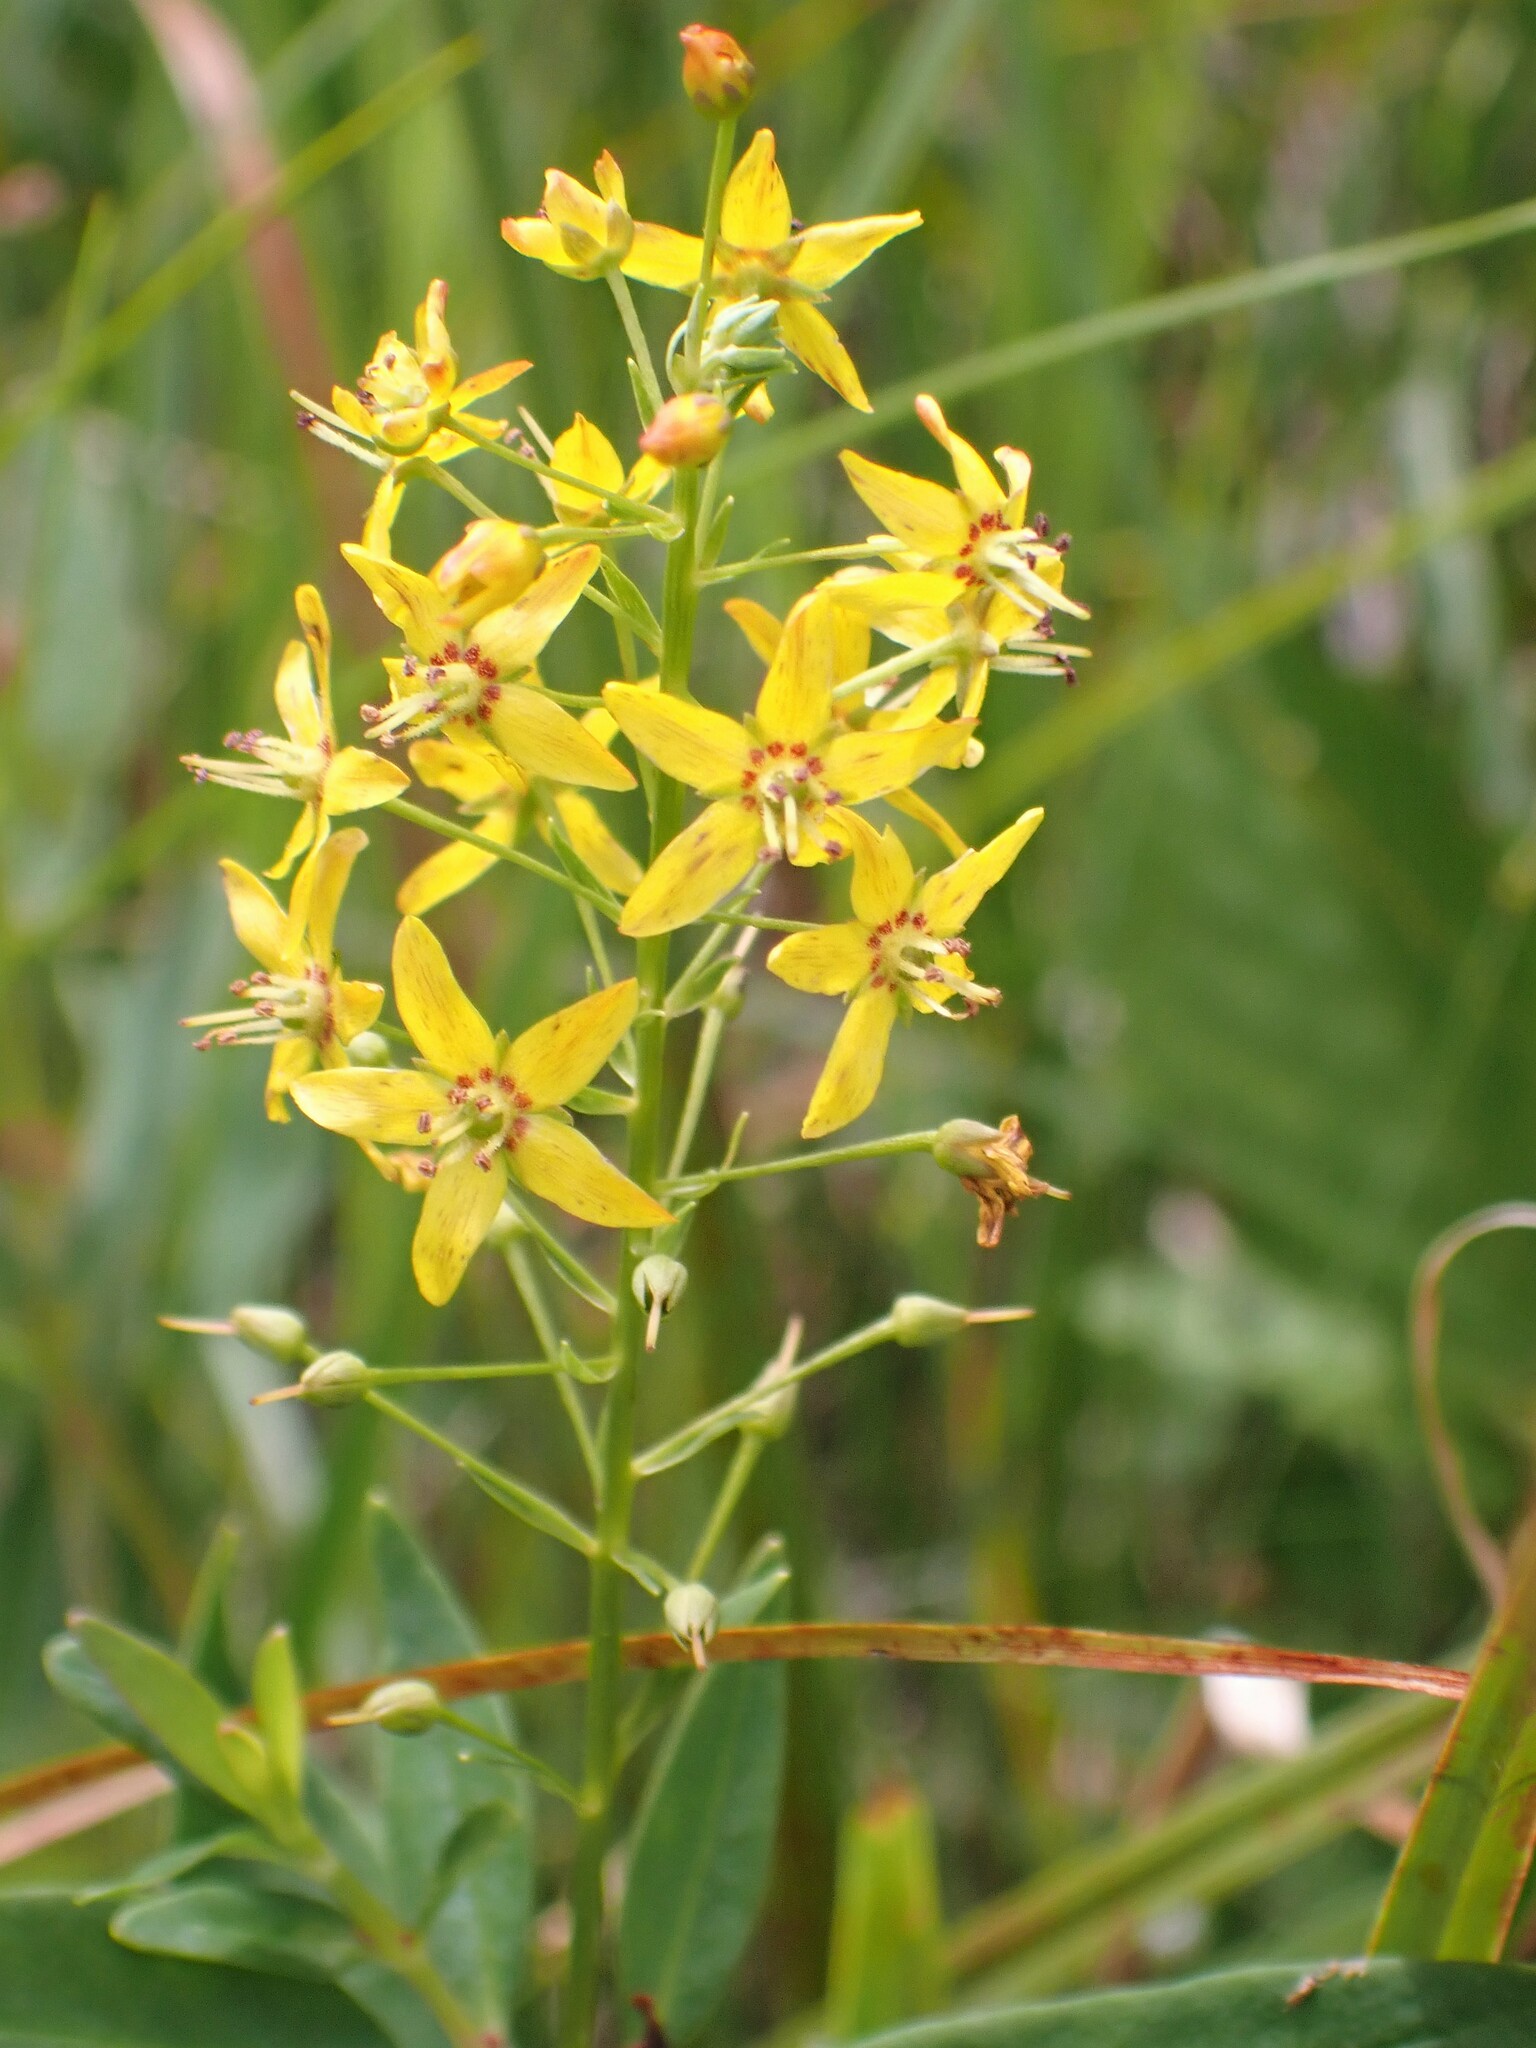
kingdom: Plantae
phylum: Tracheophyta
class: Magnoliopsida
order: Ericales
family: Primulaceae
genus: Lysimachia
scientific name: Lysimachia terrestris
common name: Lake loosestrife
